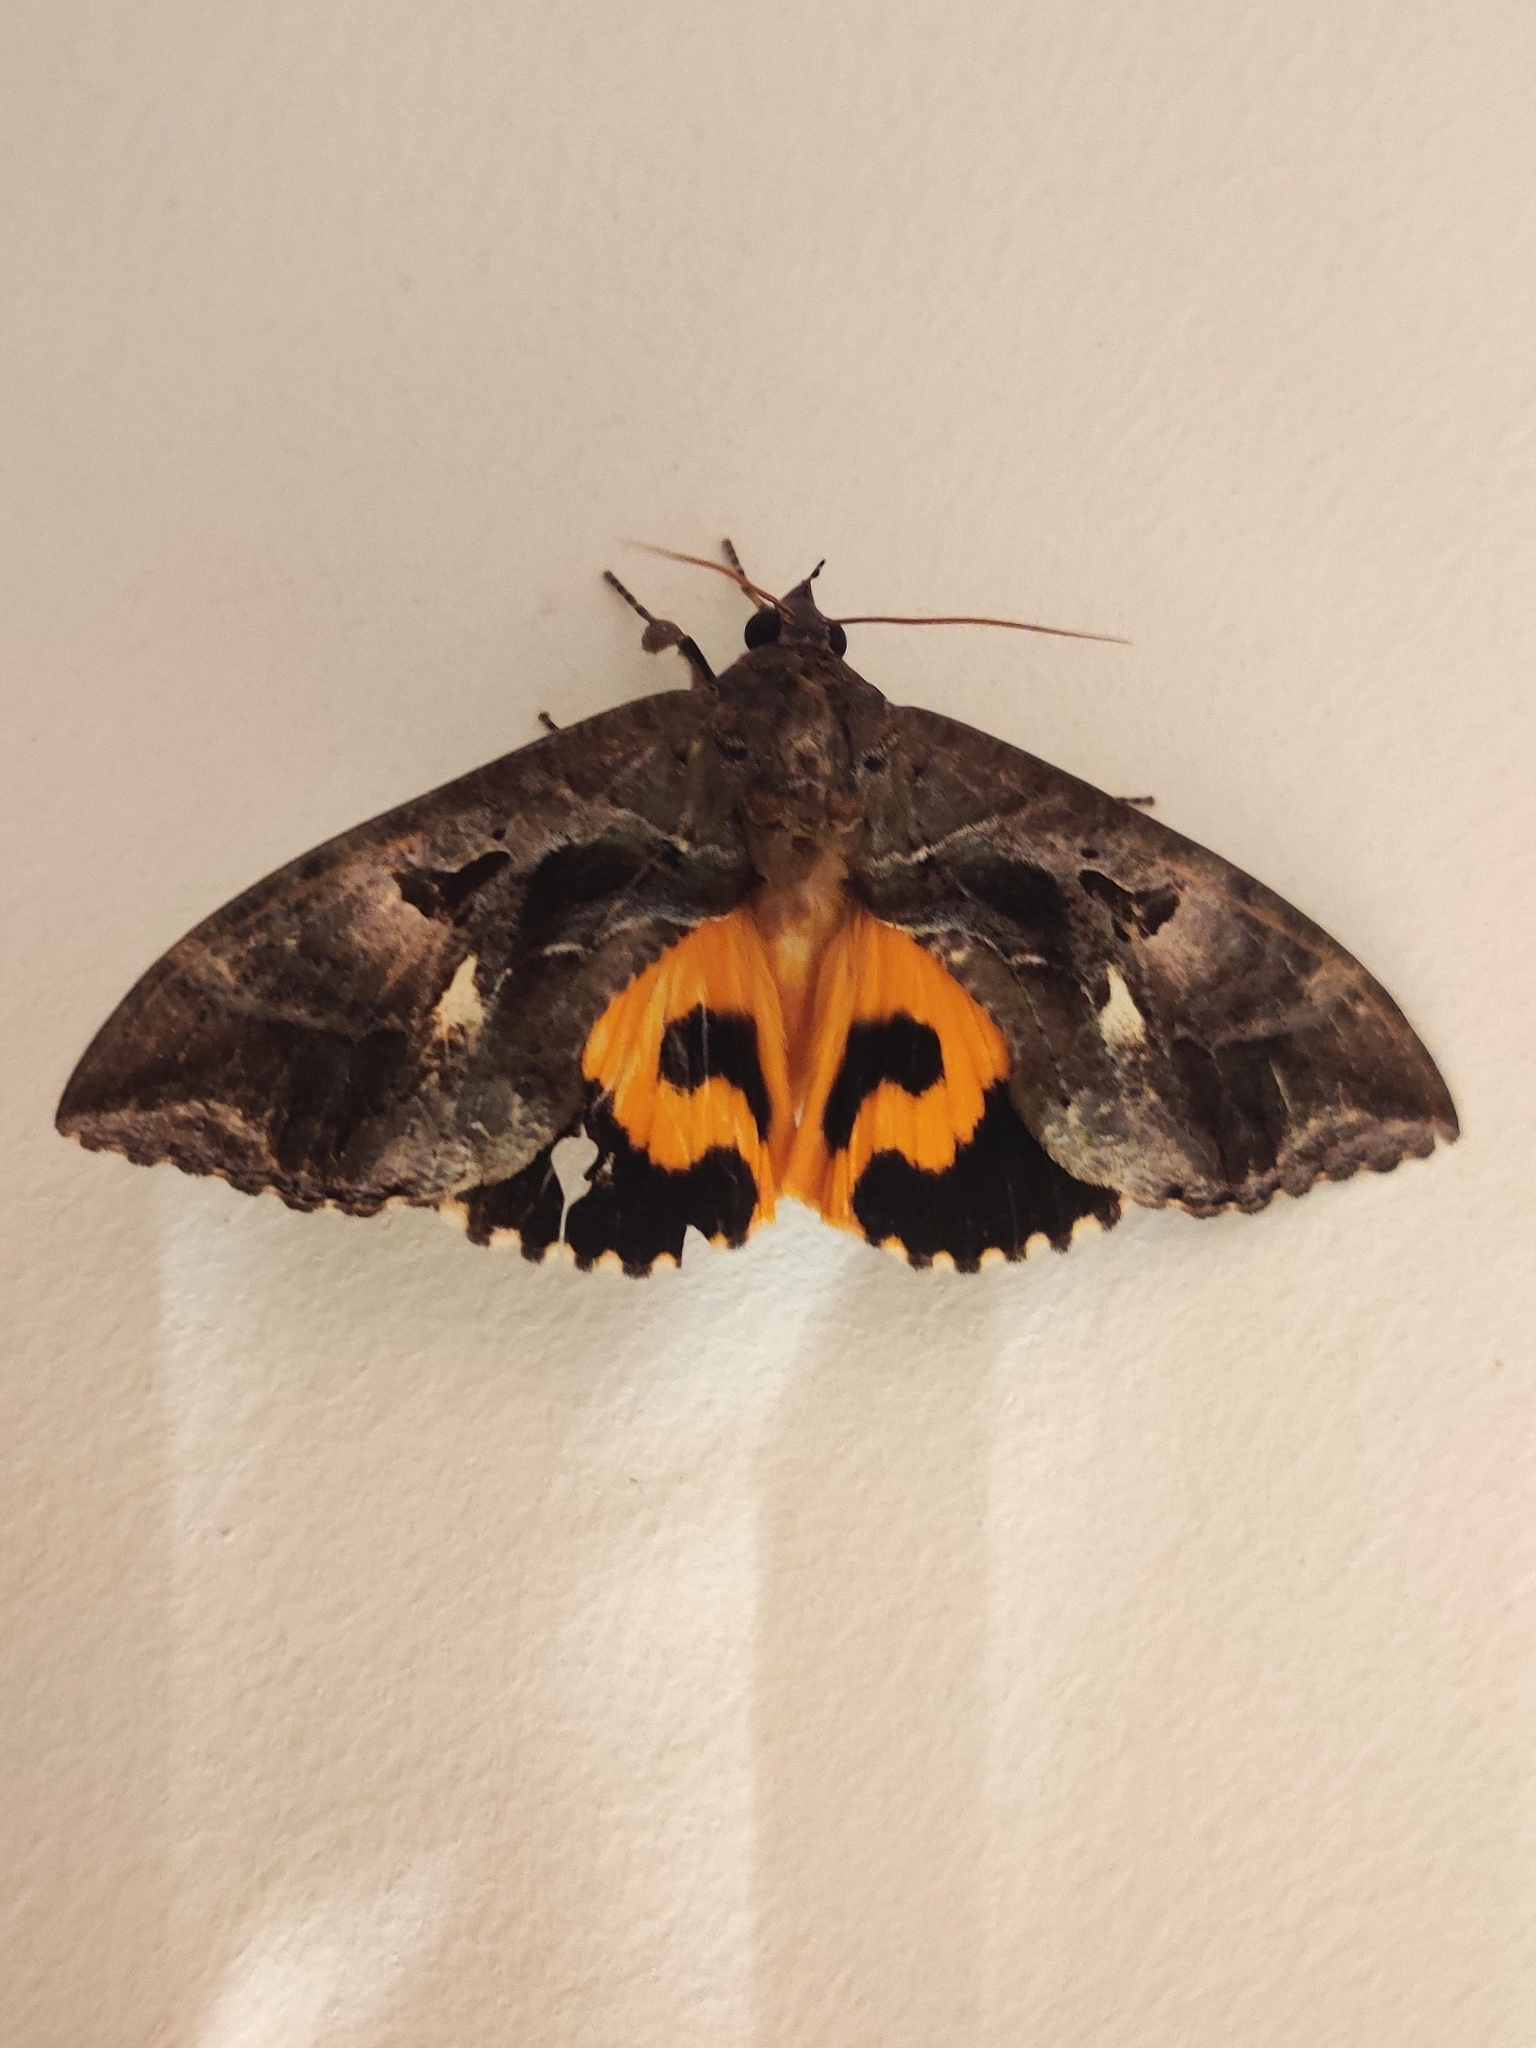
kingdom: Animalia
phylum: Arthropoda
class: Insecta
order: Lepidoptera
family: Erebidae
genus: Eudocima
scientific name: Eudocima phalonia
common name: Wasp
